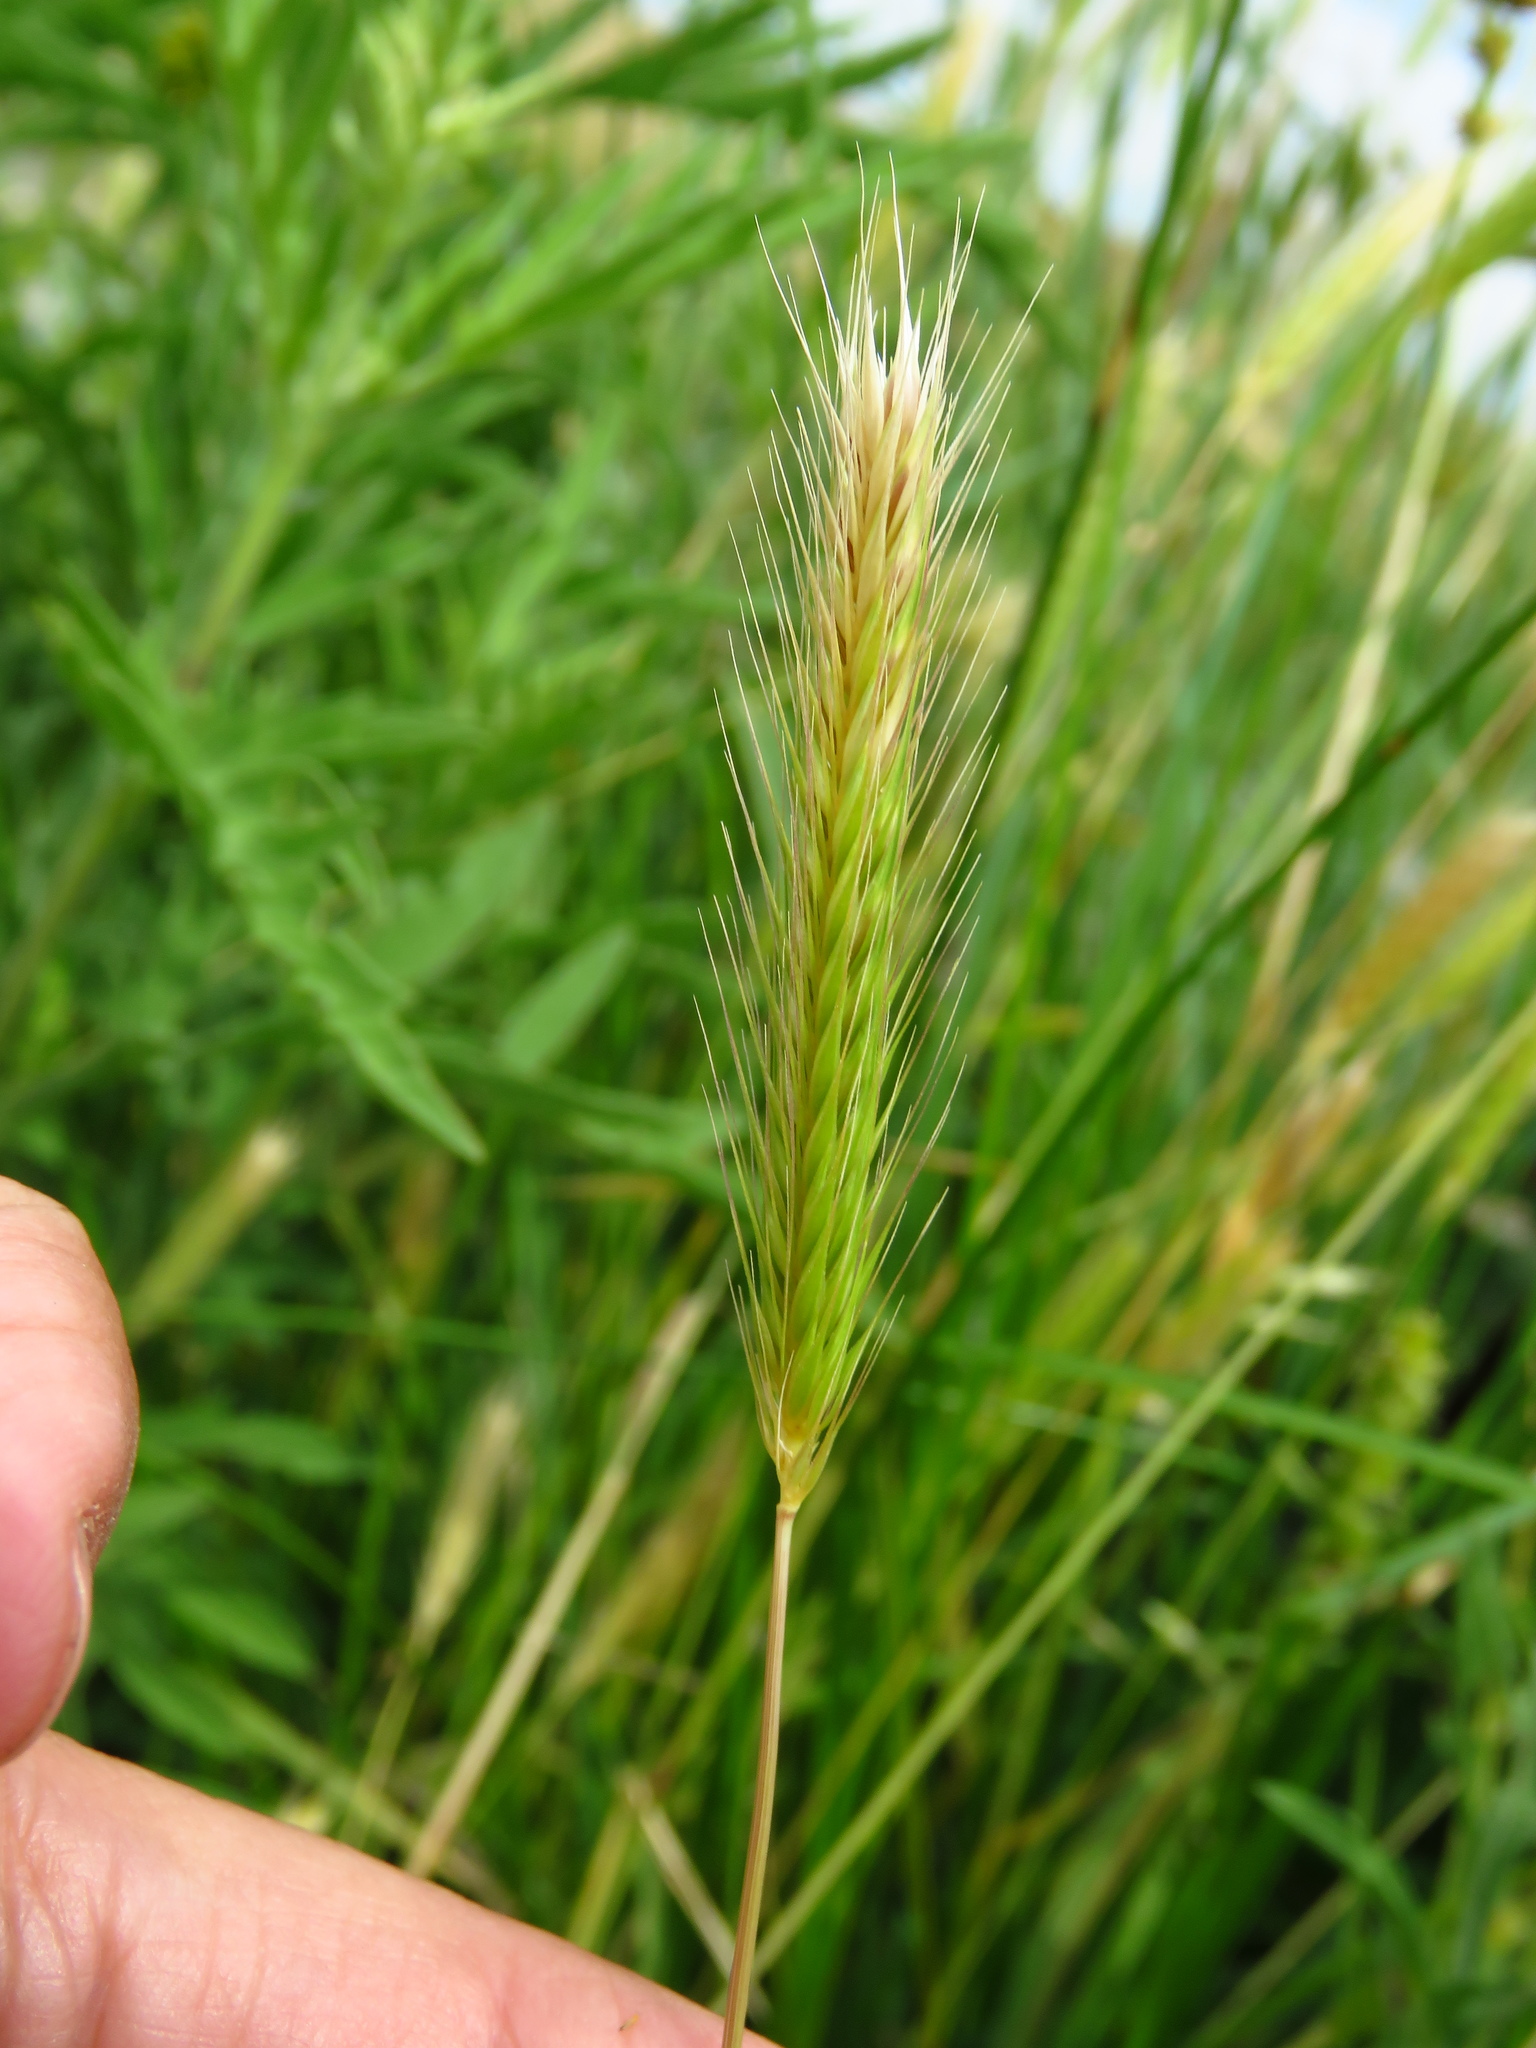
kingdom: Plantae
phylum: Tracheophyta
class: Liliopsida
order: Poales
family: Poaceae
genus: Hordeum
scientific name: Hordeum pusillum
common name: Little barley
